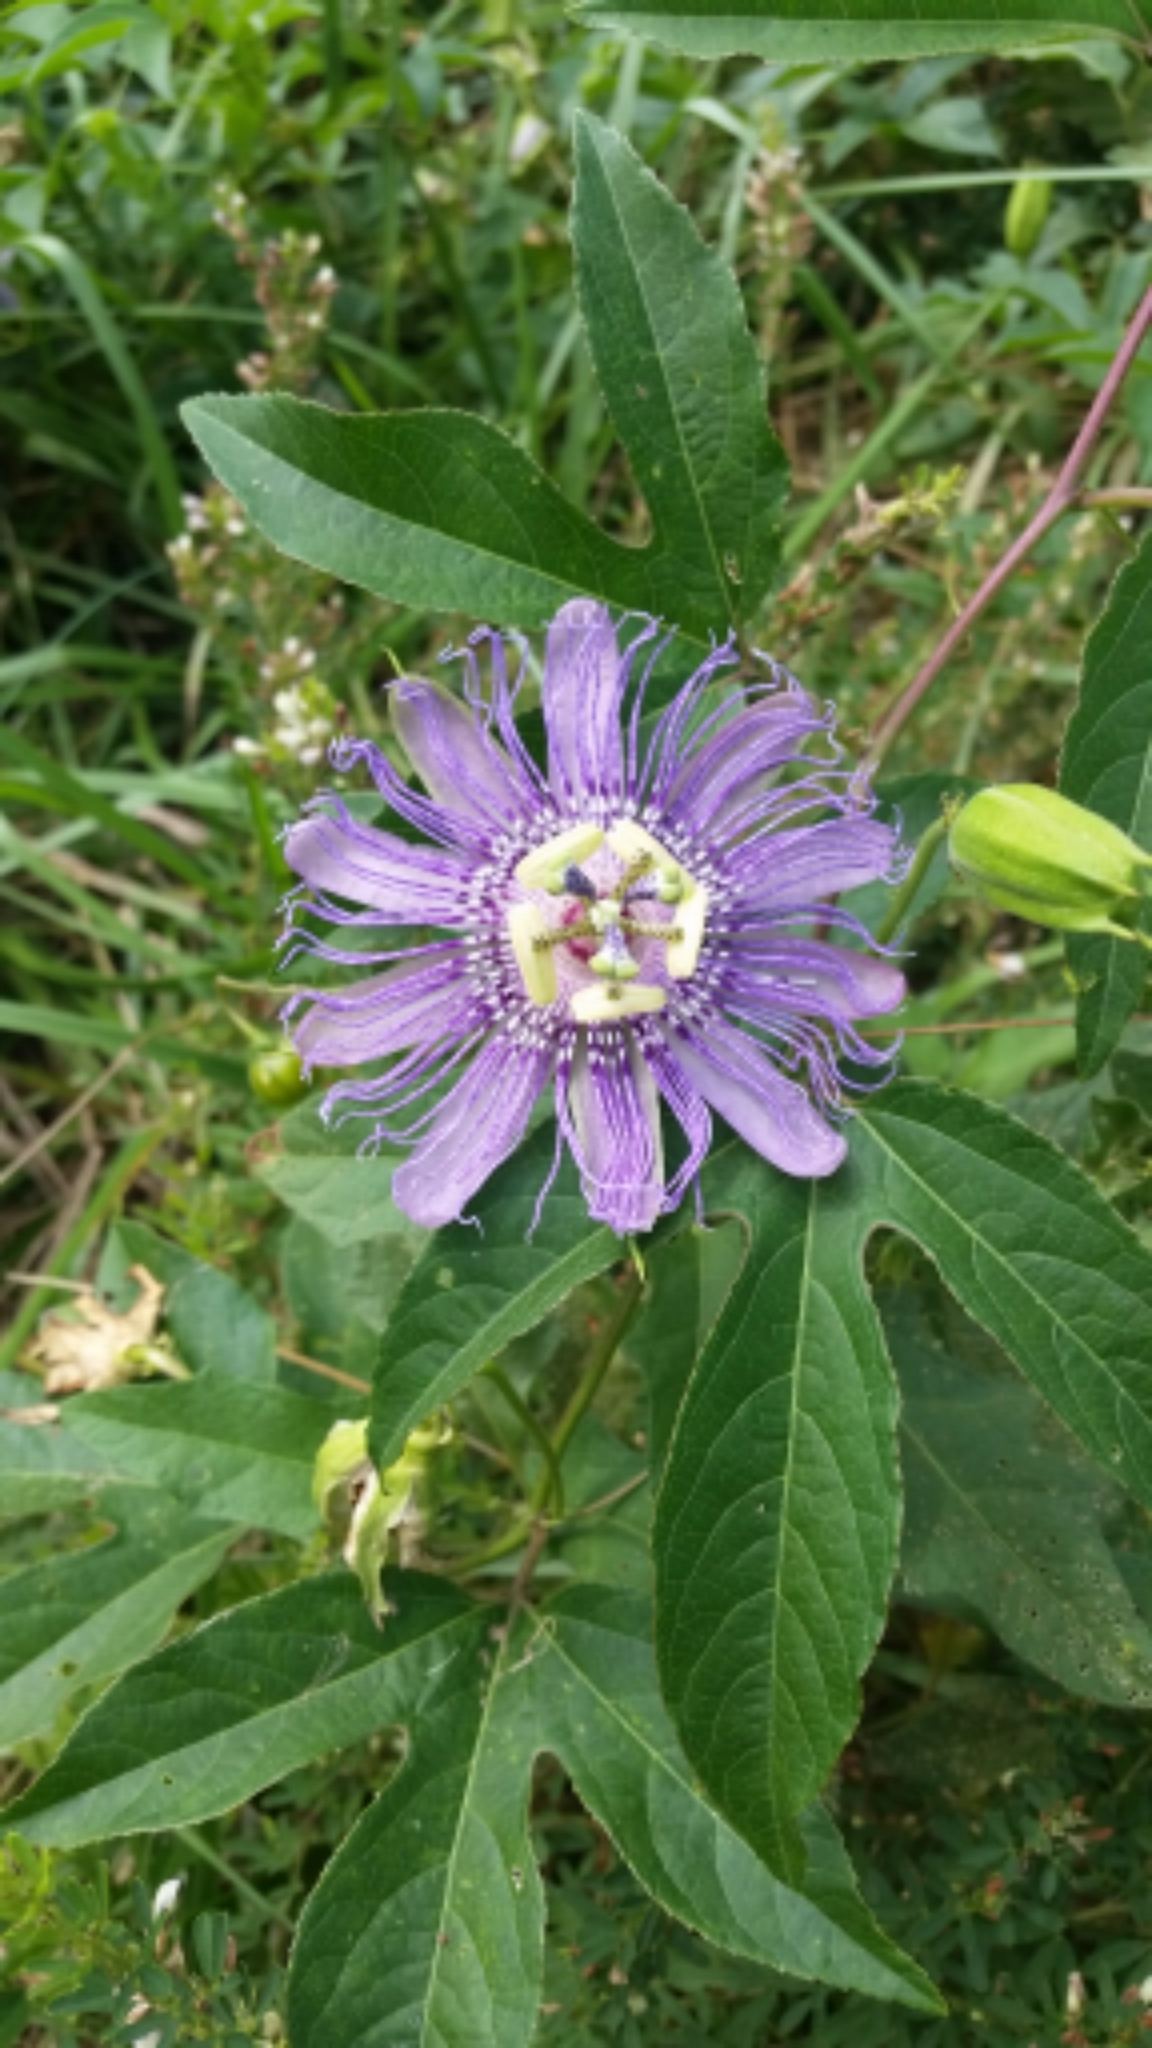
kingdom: Plantae
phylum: Tracheophyta
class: Magnoliopsida
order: Malpighiales
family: Passifloraceae
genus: Passiflora
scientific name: Passiflora incarnata
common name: Apricot-vine
